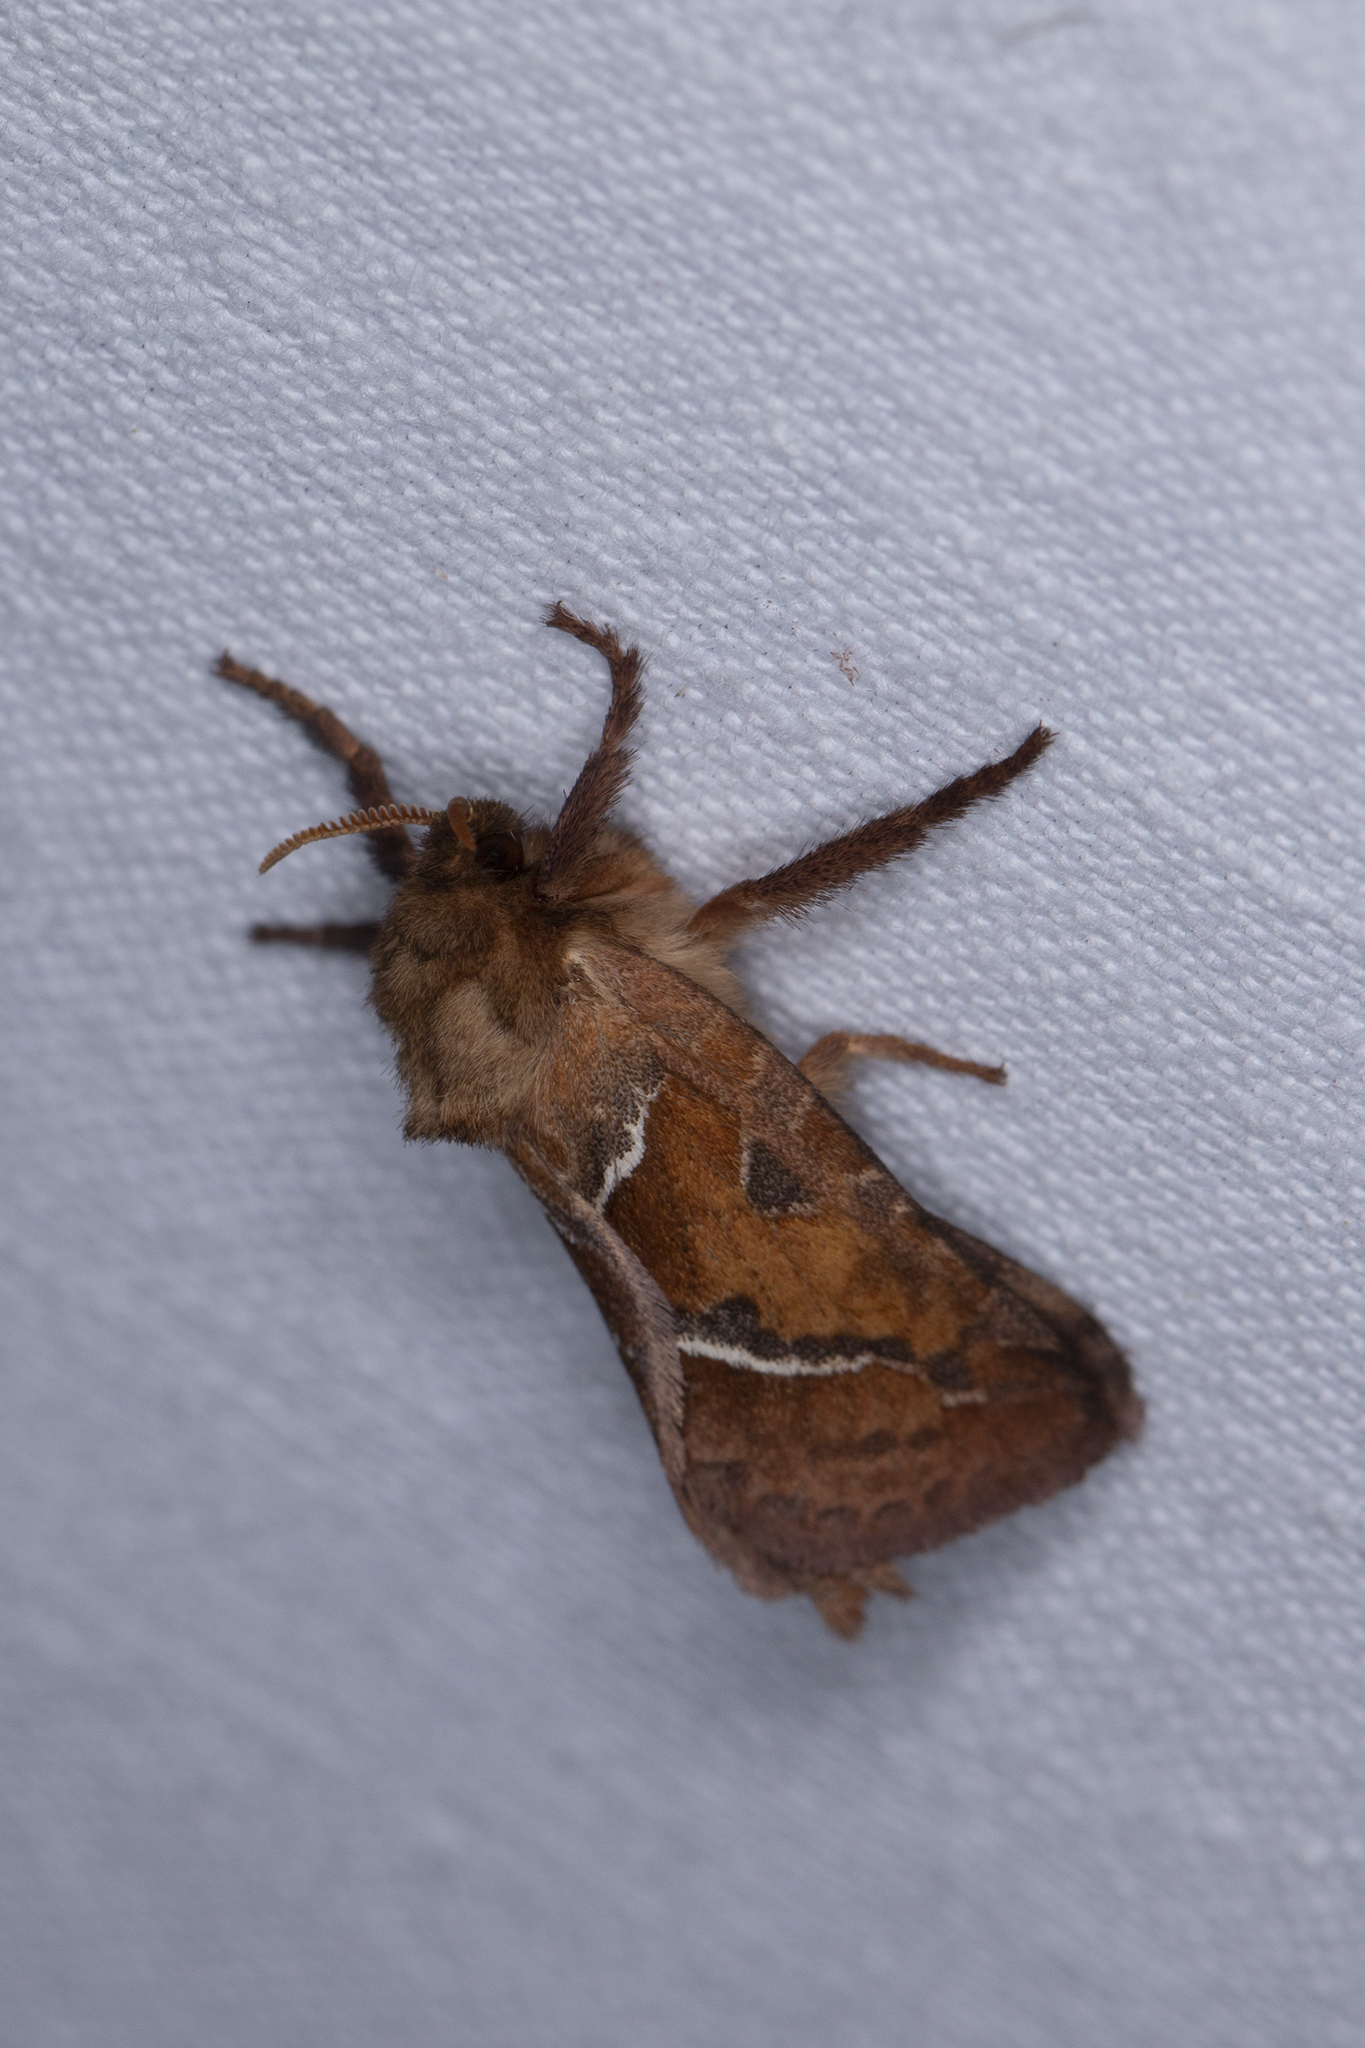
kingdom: Animalia
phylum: Arthropoda
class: Insecta
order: Lepidoptera
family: Hepialidae
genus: Triodia
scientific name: Triodia sylvina
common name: Orange swift
